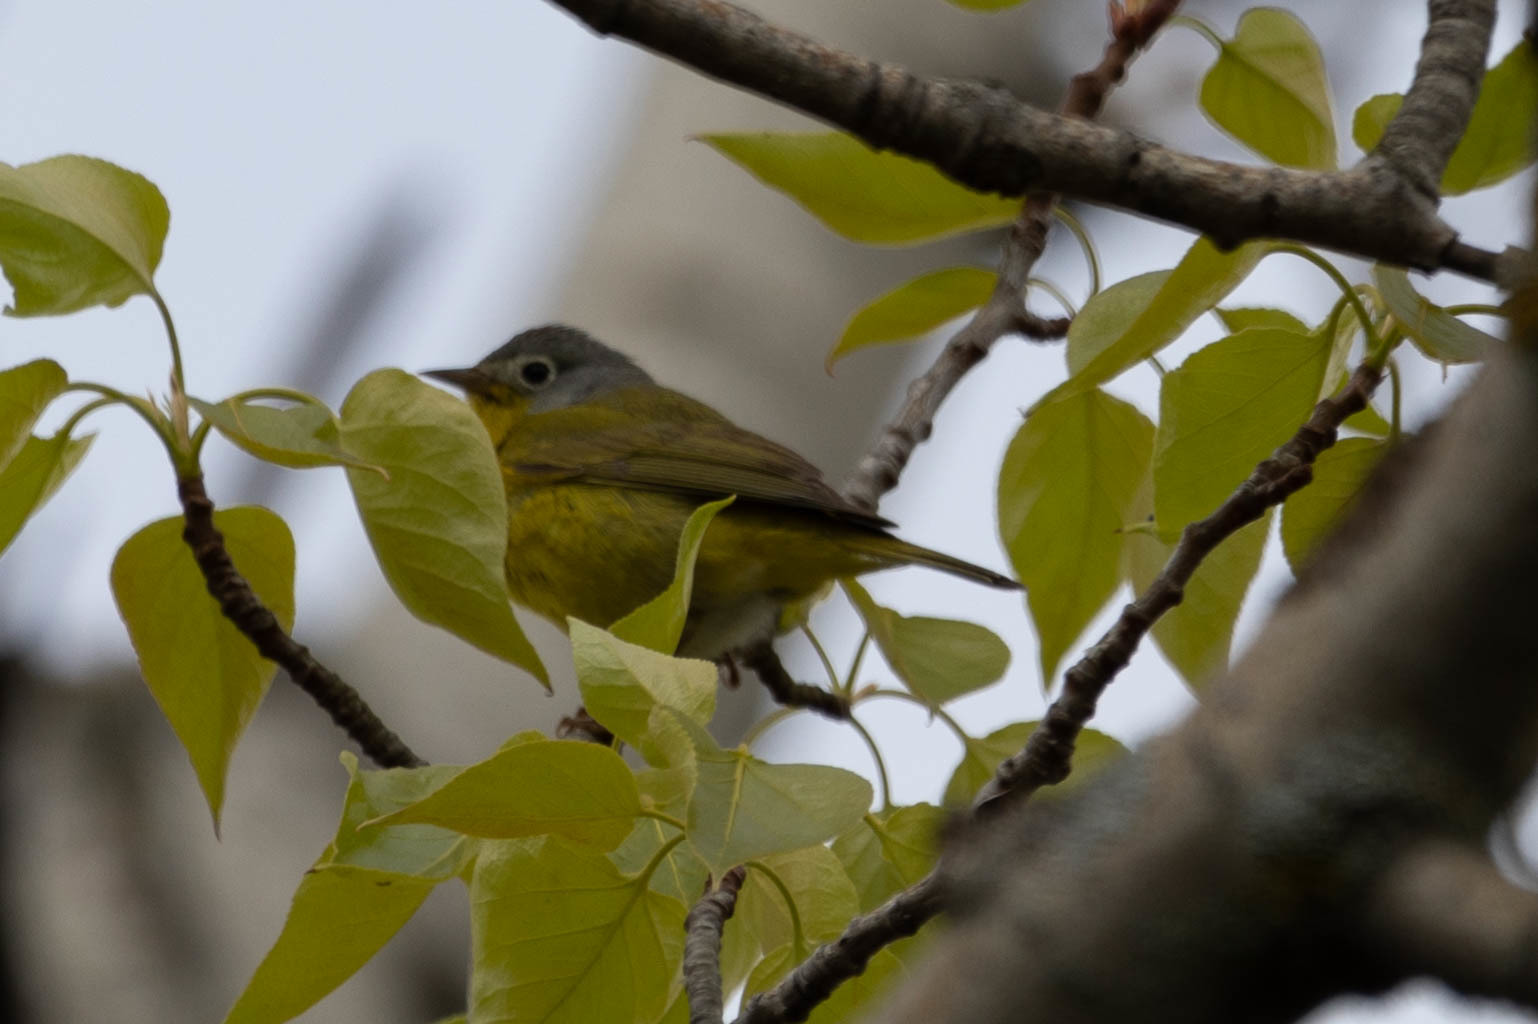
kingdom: Animalia
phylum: Chordata
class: Aves
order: Passeriformes
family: Parulidae
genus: Leiothlypis
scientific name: Leiothlypis ruficapilla
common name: Nashville warbler
